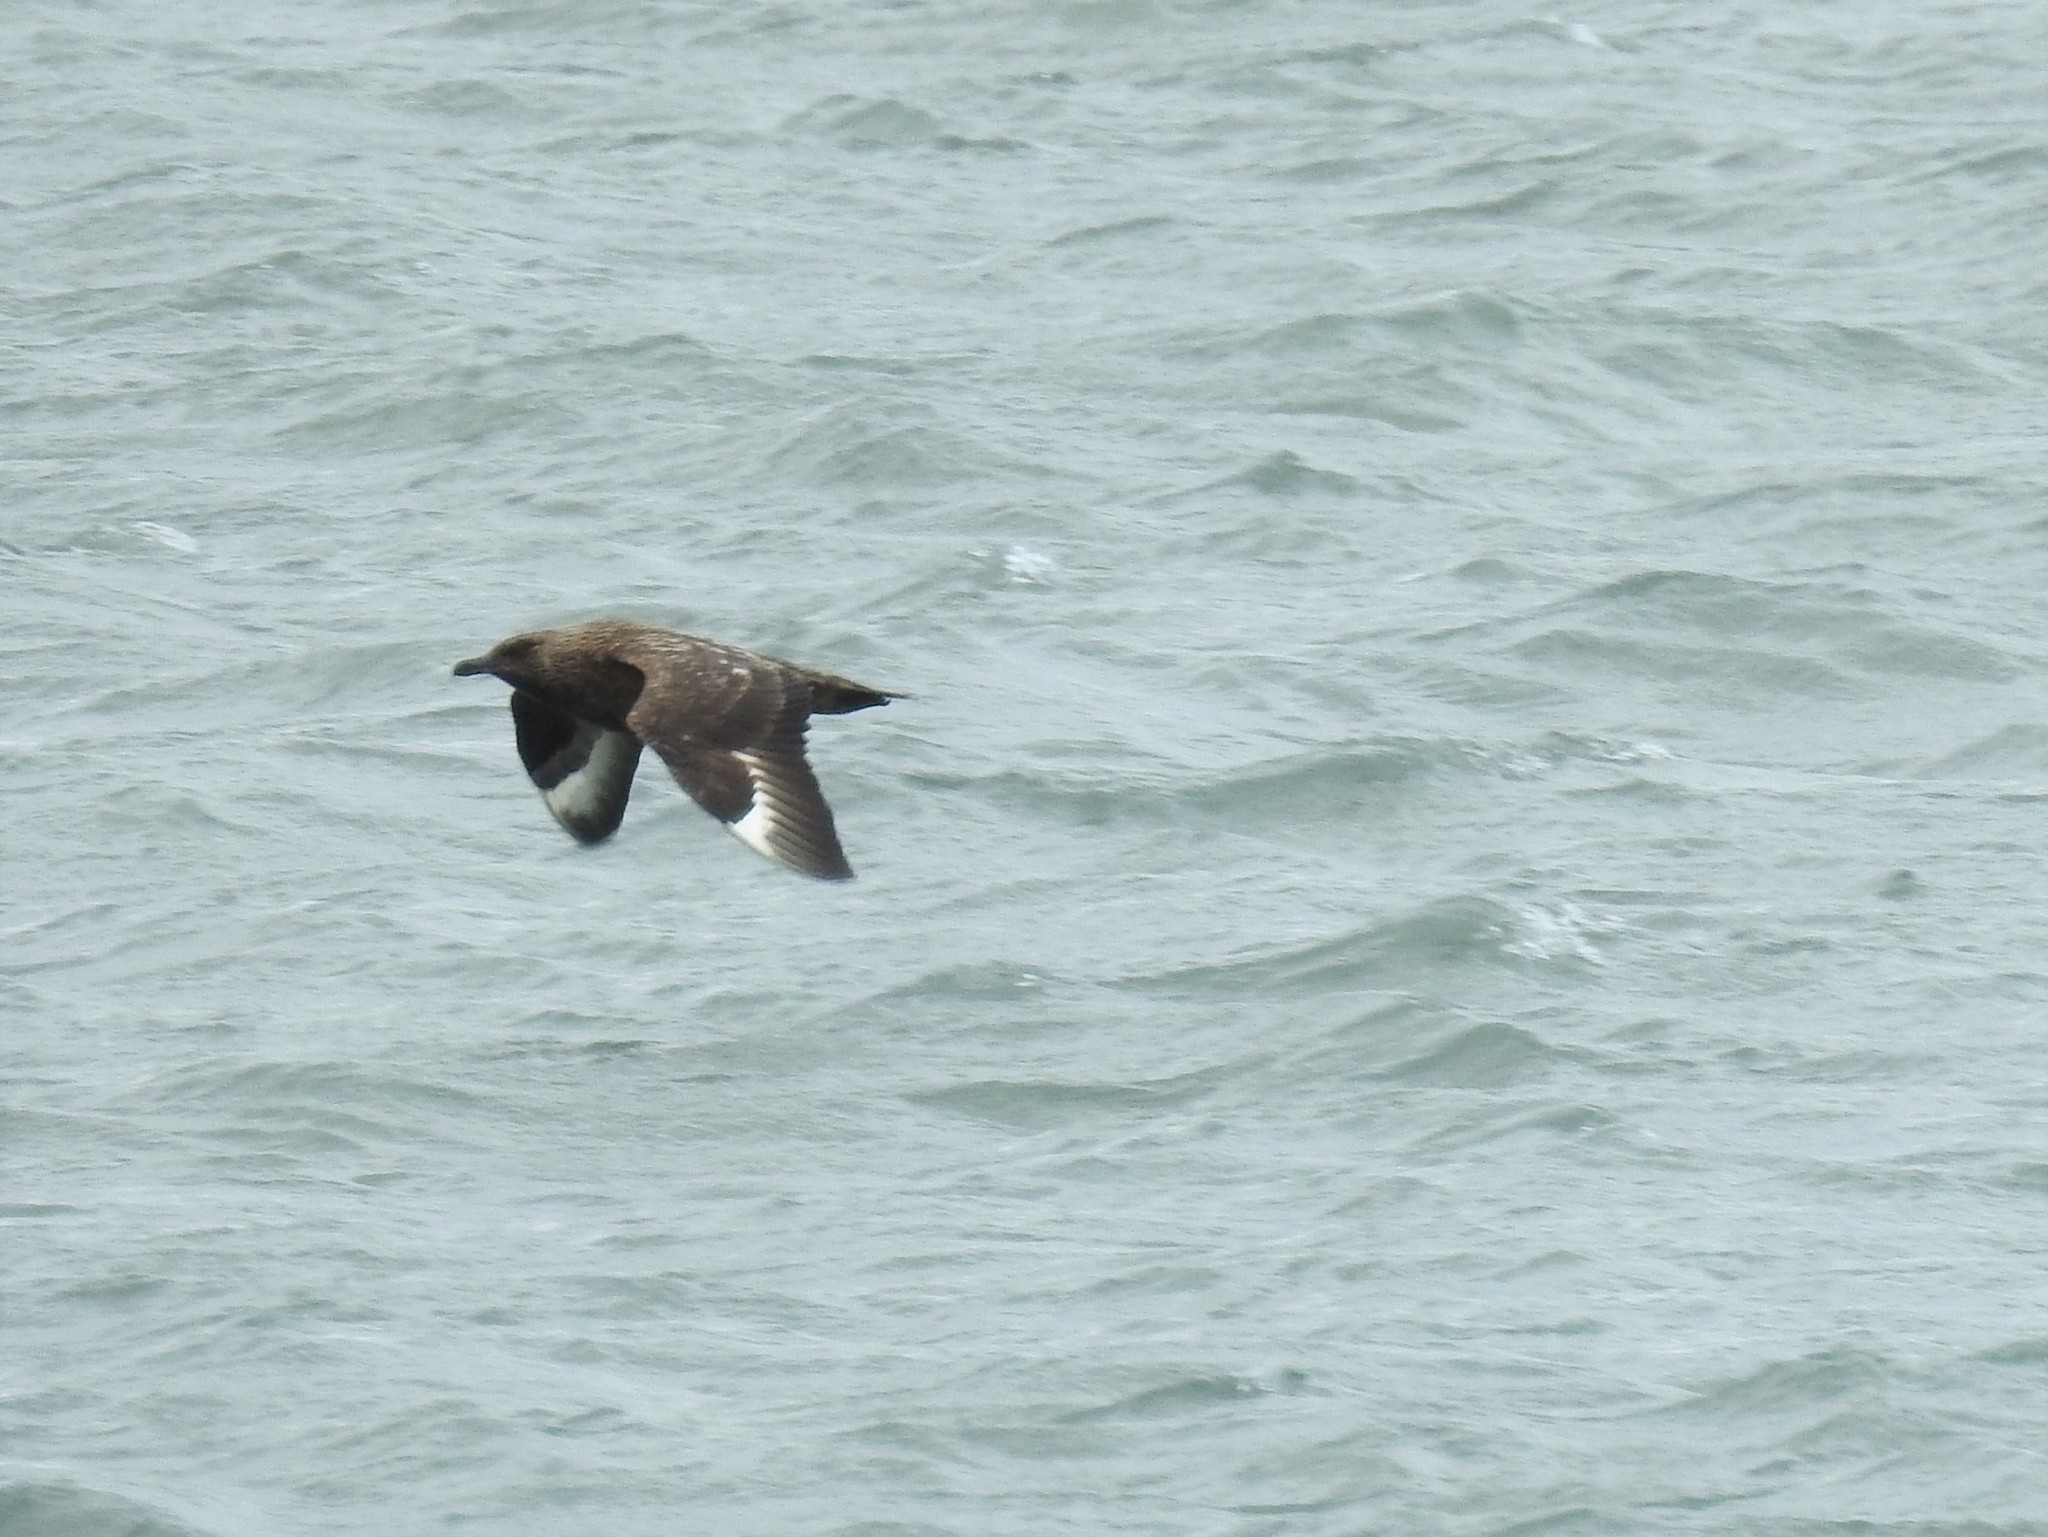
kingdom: Animalia
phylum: Chordata
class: Aves
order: Charadriiformes
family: Stercorariidae
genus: Stercorarius
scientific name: Stercorarius skua
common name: Great skua
